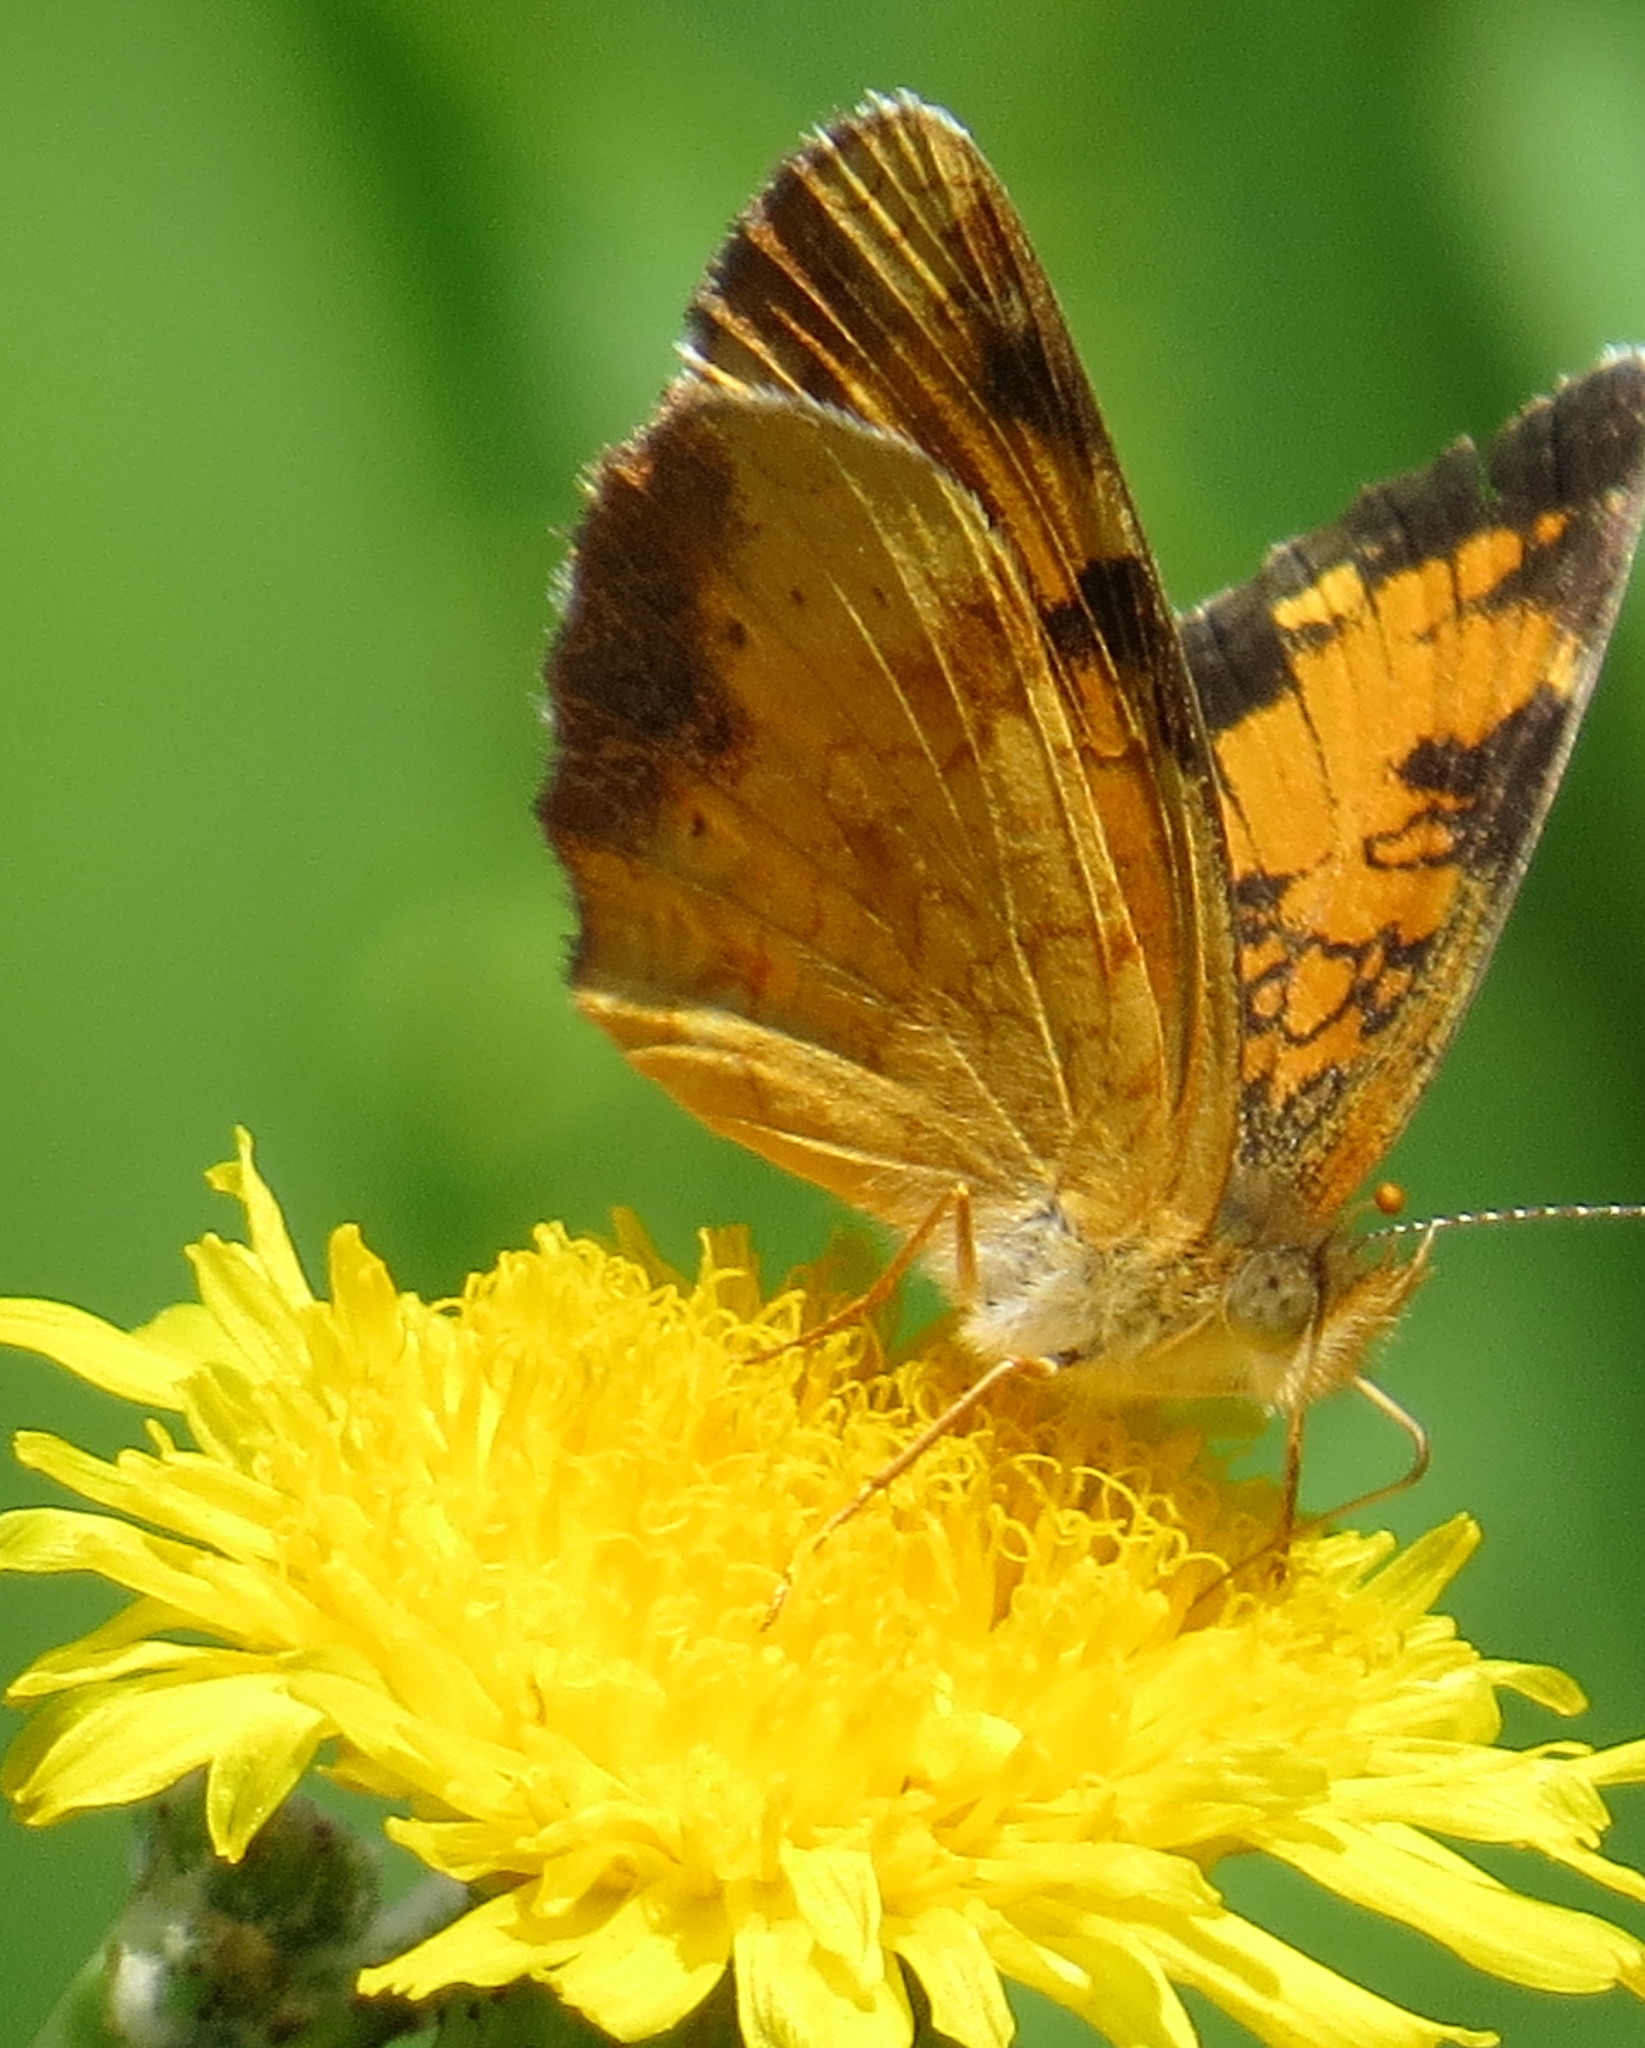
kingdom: Animalia
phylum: Arthropoda
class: Insecta
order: Lepidoptera
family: Nymphalidae
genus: Phyciodes
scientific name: Phyciodes tharos
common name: Pearl crescent
